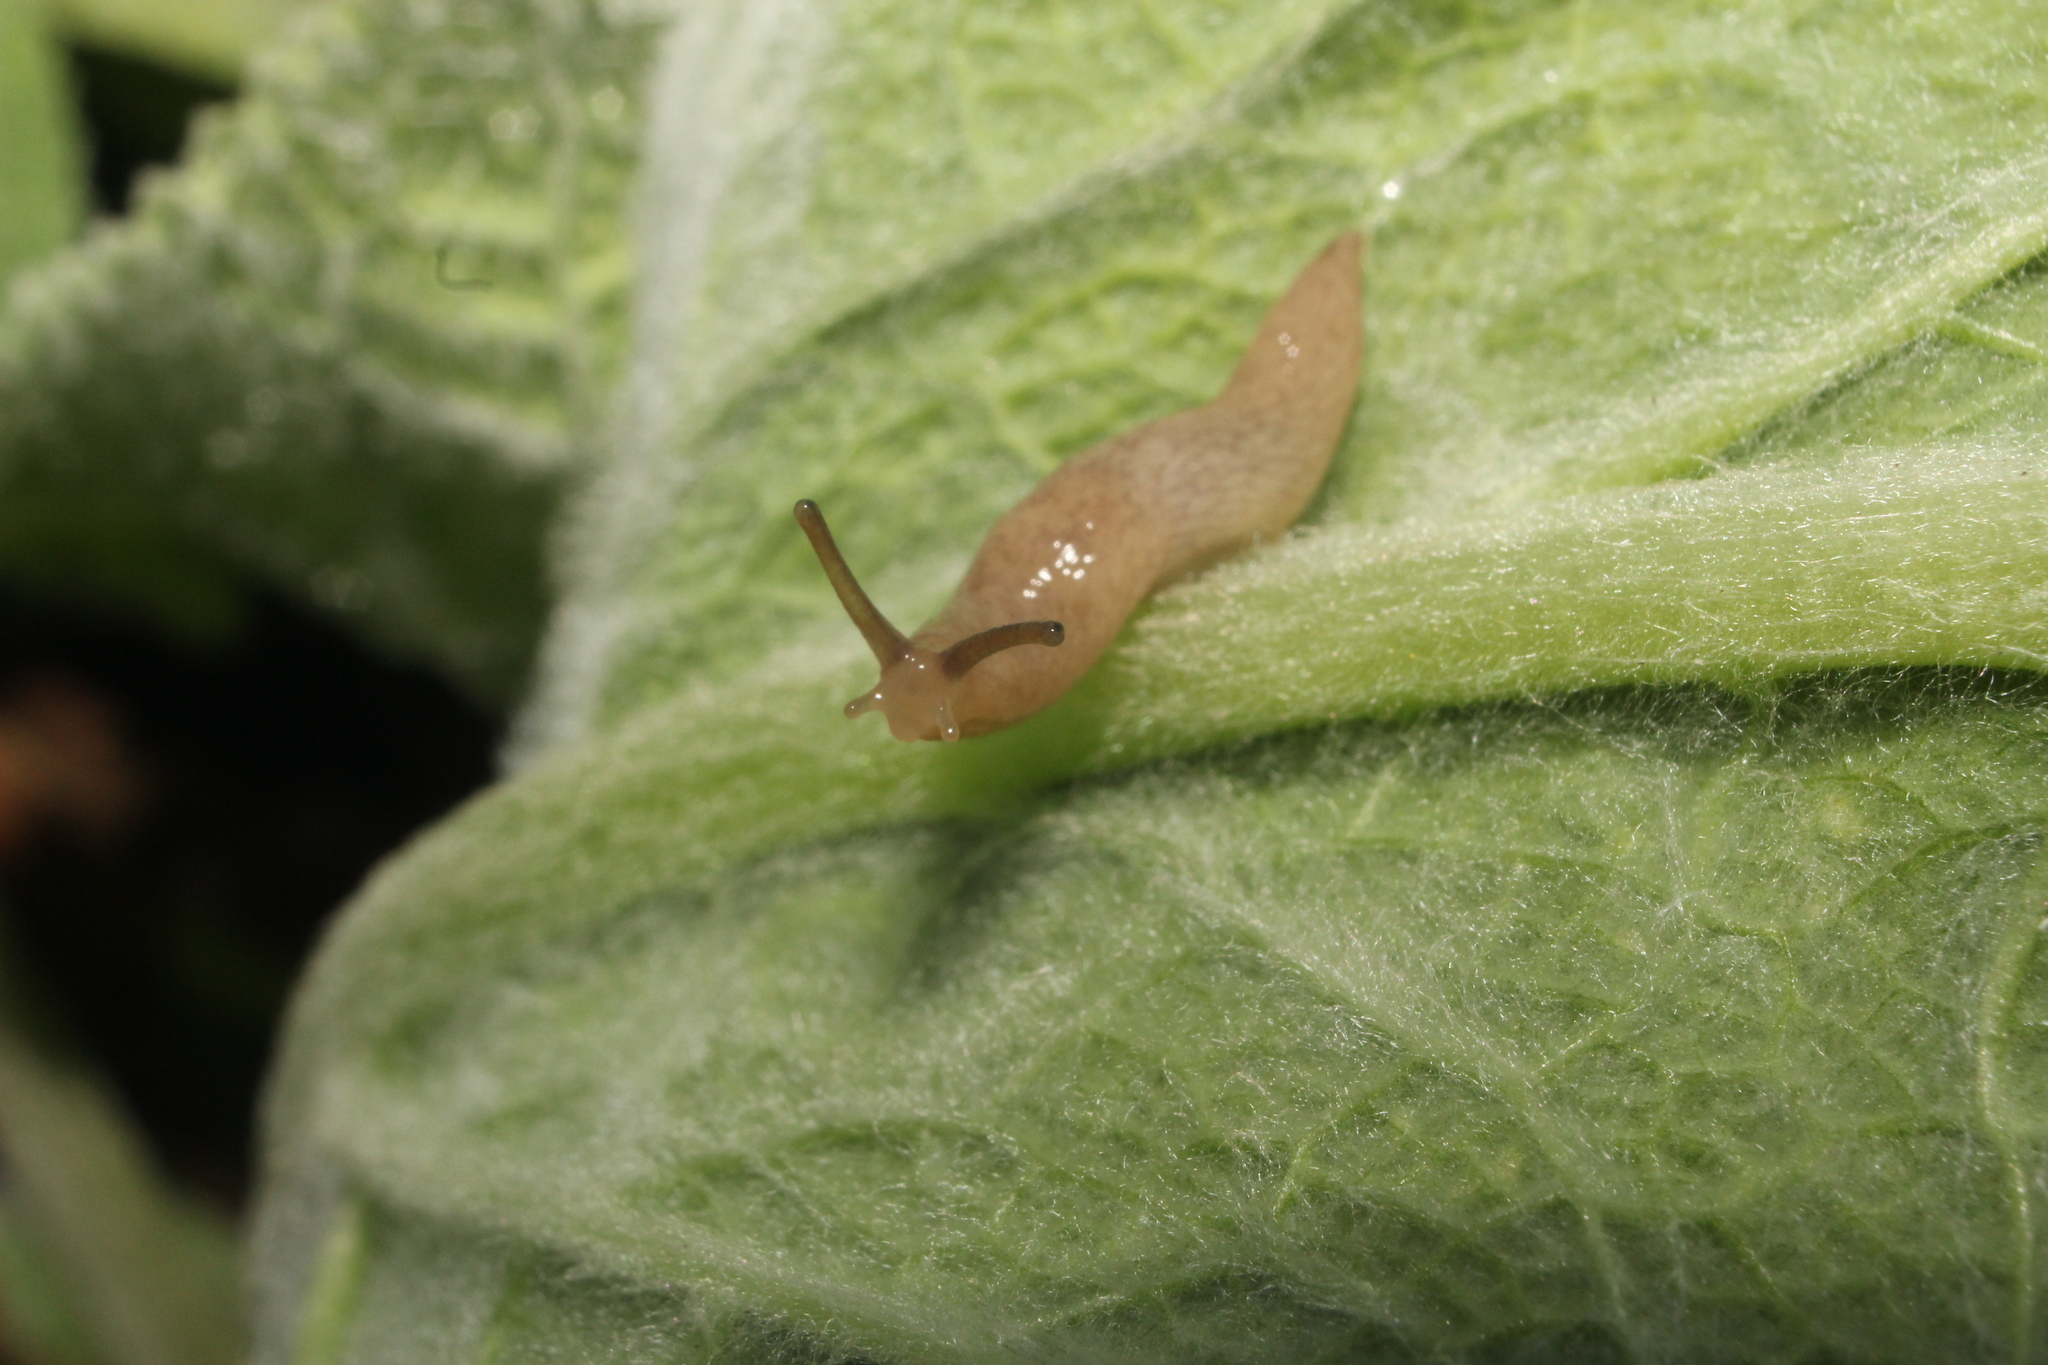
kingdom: Animalia
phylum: Mollusca
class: Gastropoda
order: Stylommatophora
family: Agriolimacidae
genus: Deroceras
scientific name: Deroceras reticulatum
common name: Gray field slug
